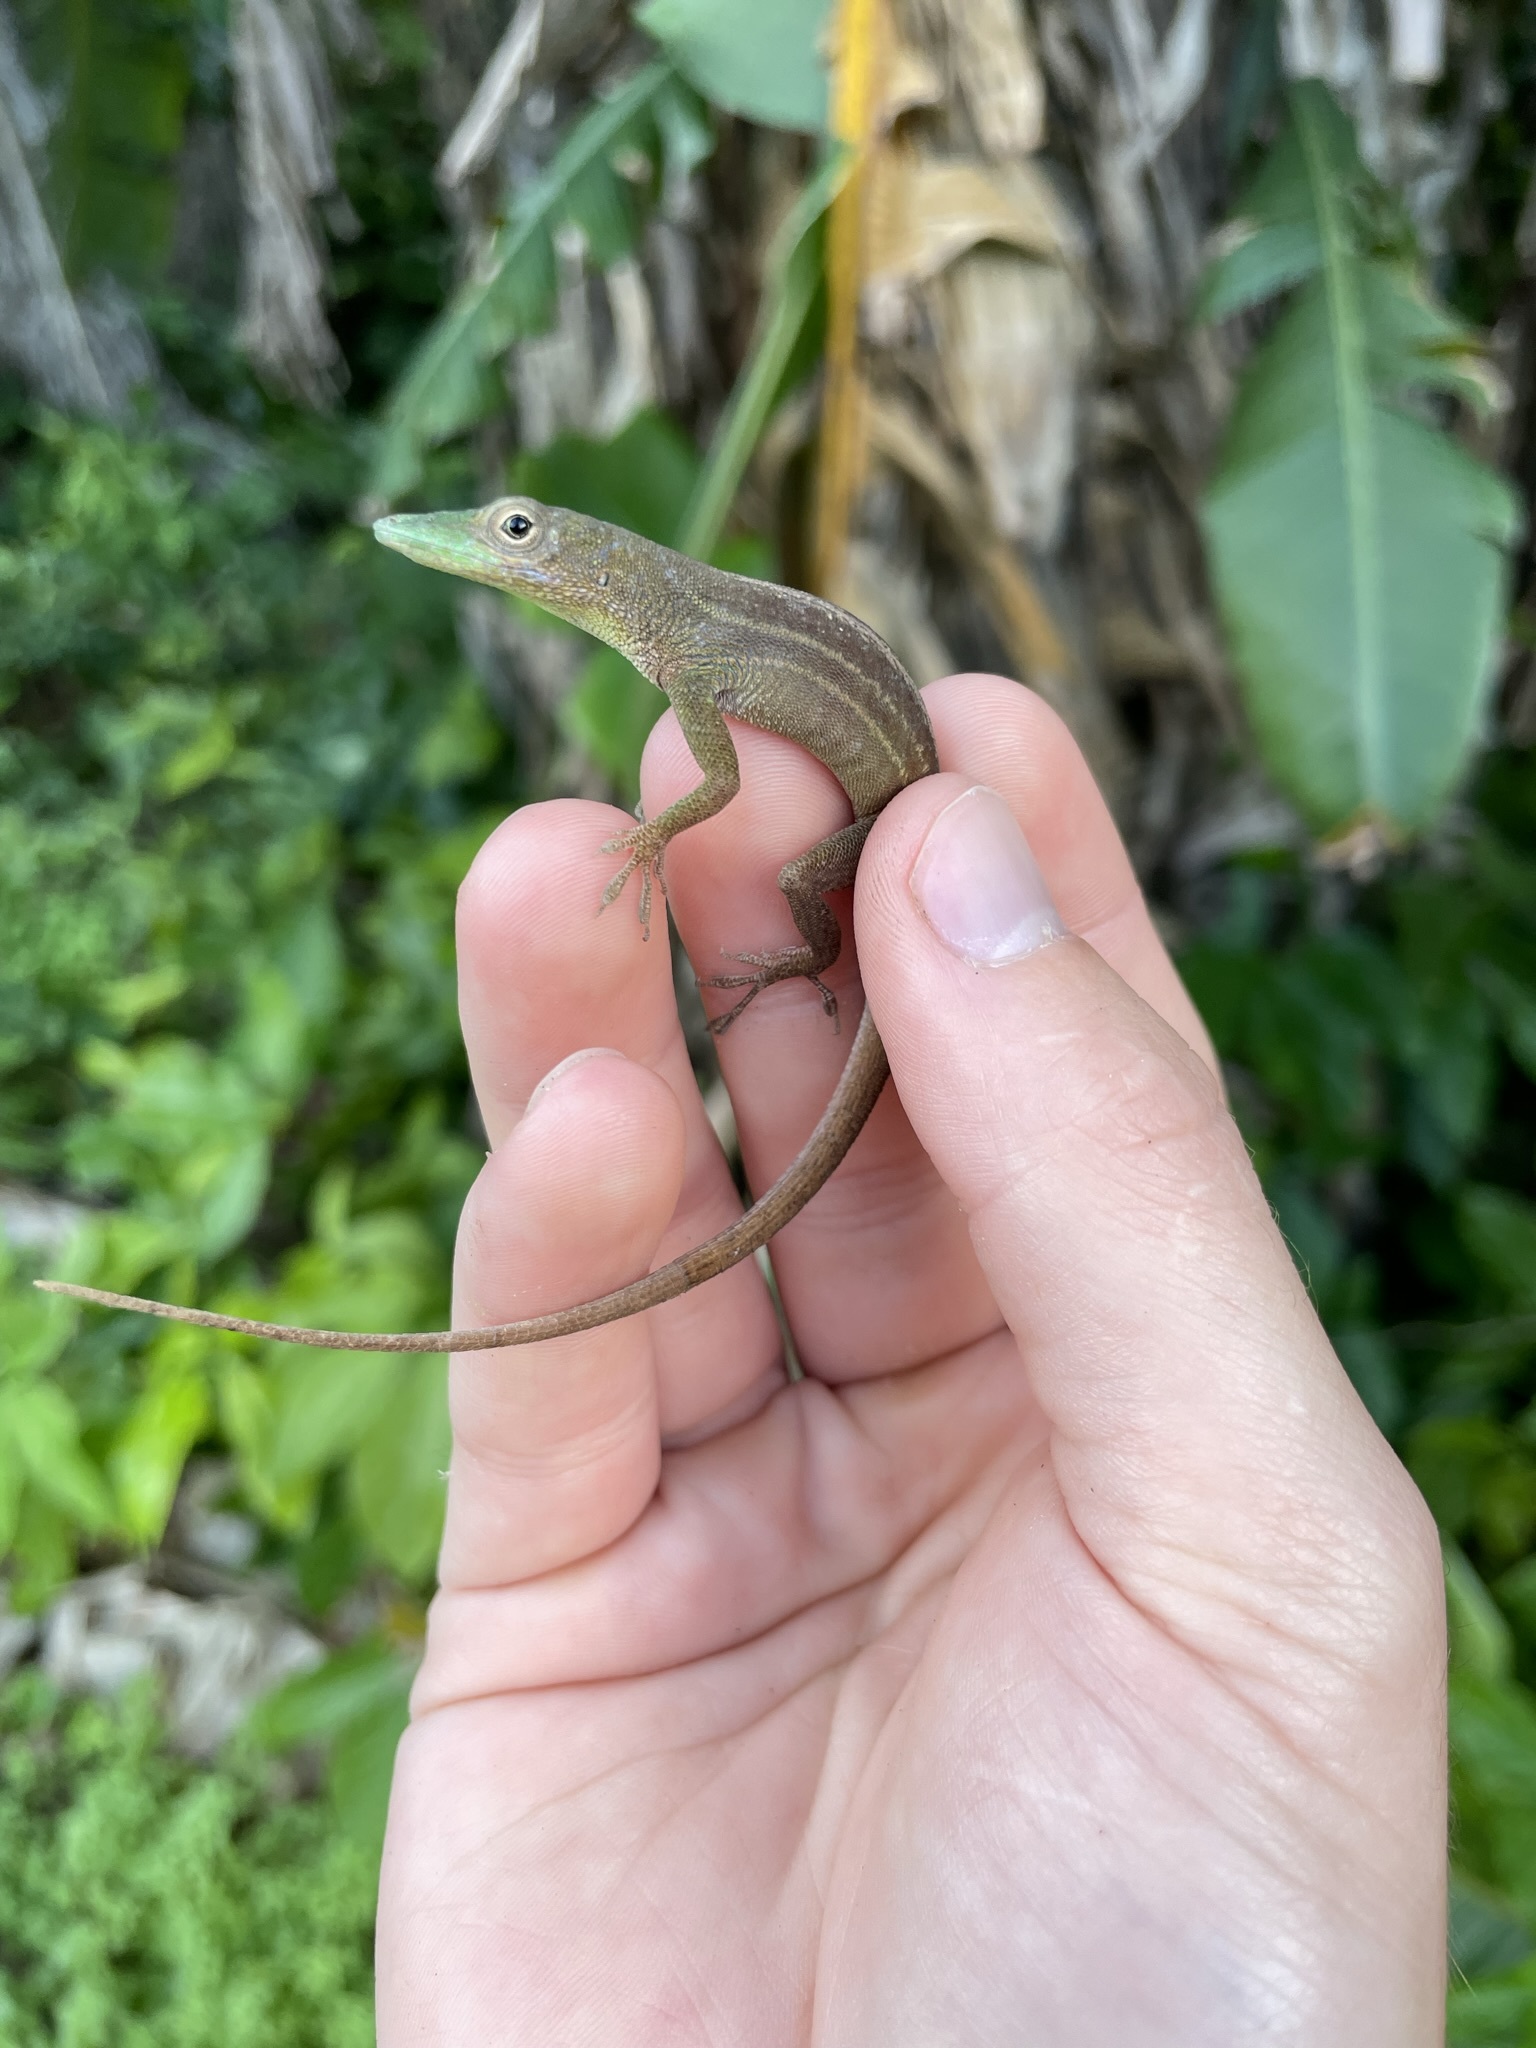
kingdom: Animalia
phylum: Chordata
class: Squamata
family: Dactyloidae
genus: Anolis
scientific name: Anolis chlorocyanus
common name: Hispaniolan green anole
